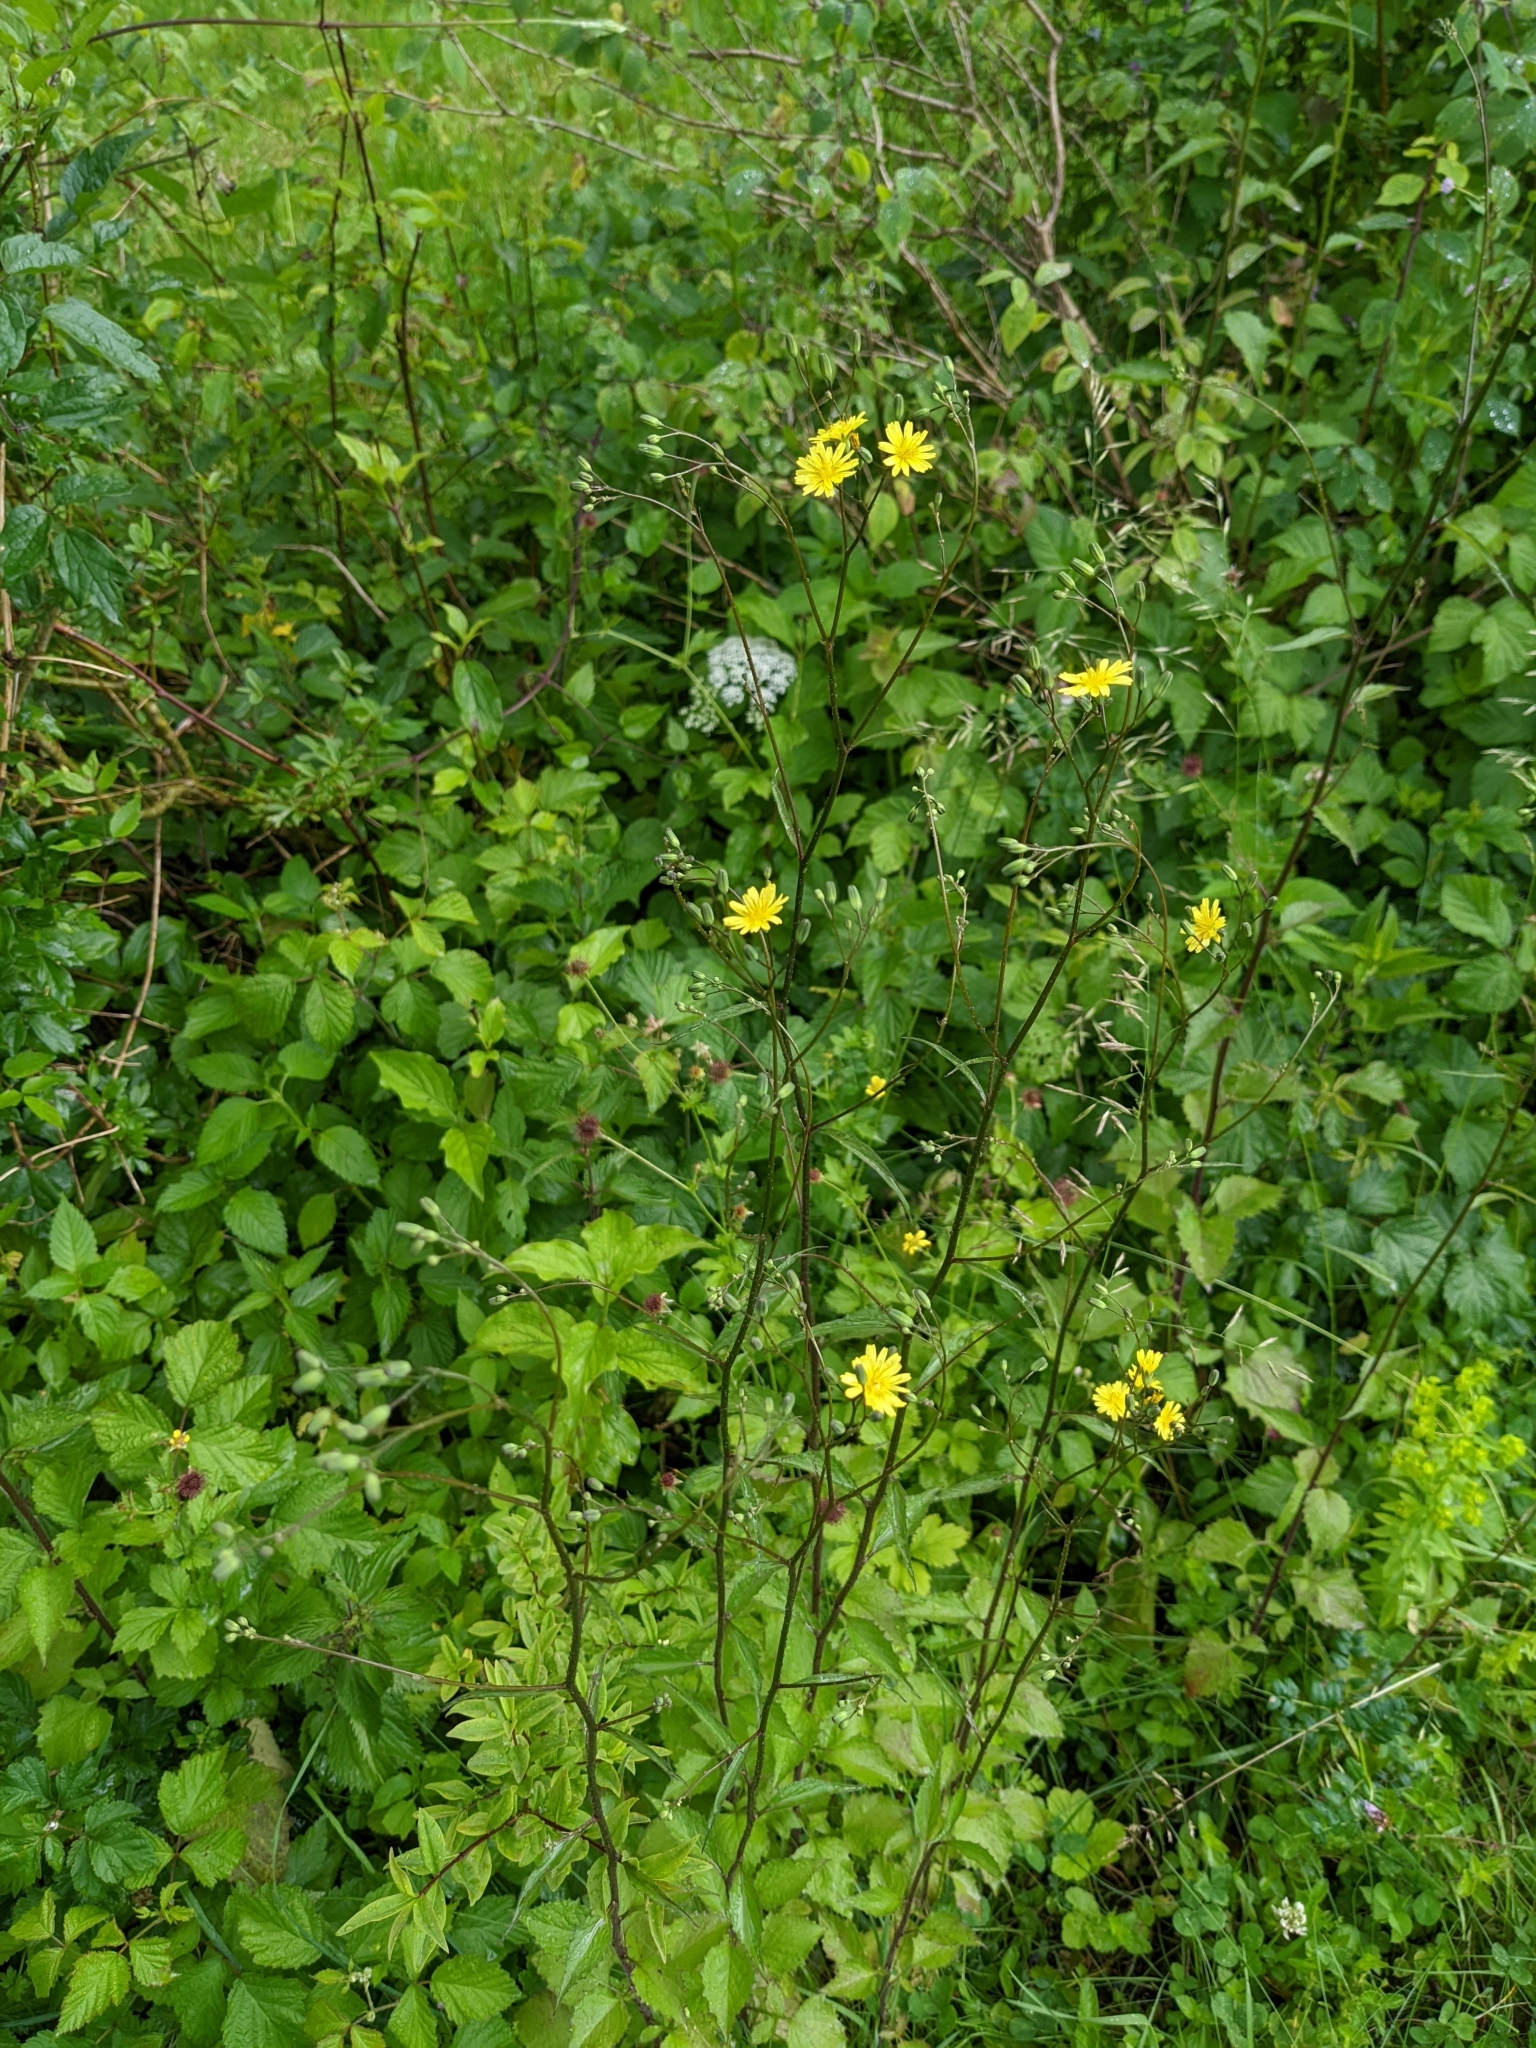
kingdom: Plantae
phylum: Tracheophyta
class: Magnoliopsida
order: Asterales
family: Asteraceae
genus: Lapsana
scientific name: Lapsana communis
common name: Nipplewort
